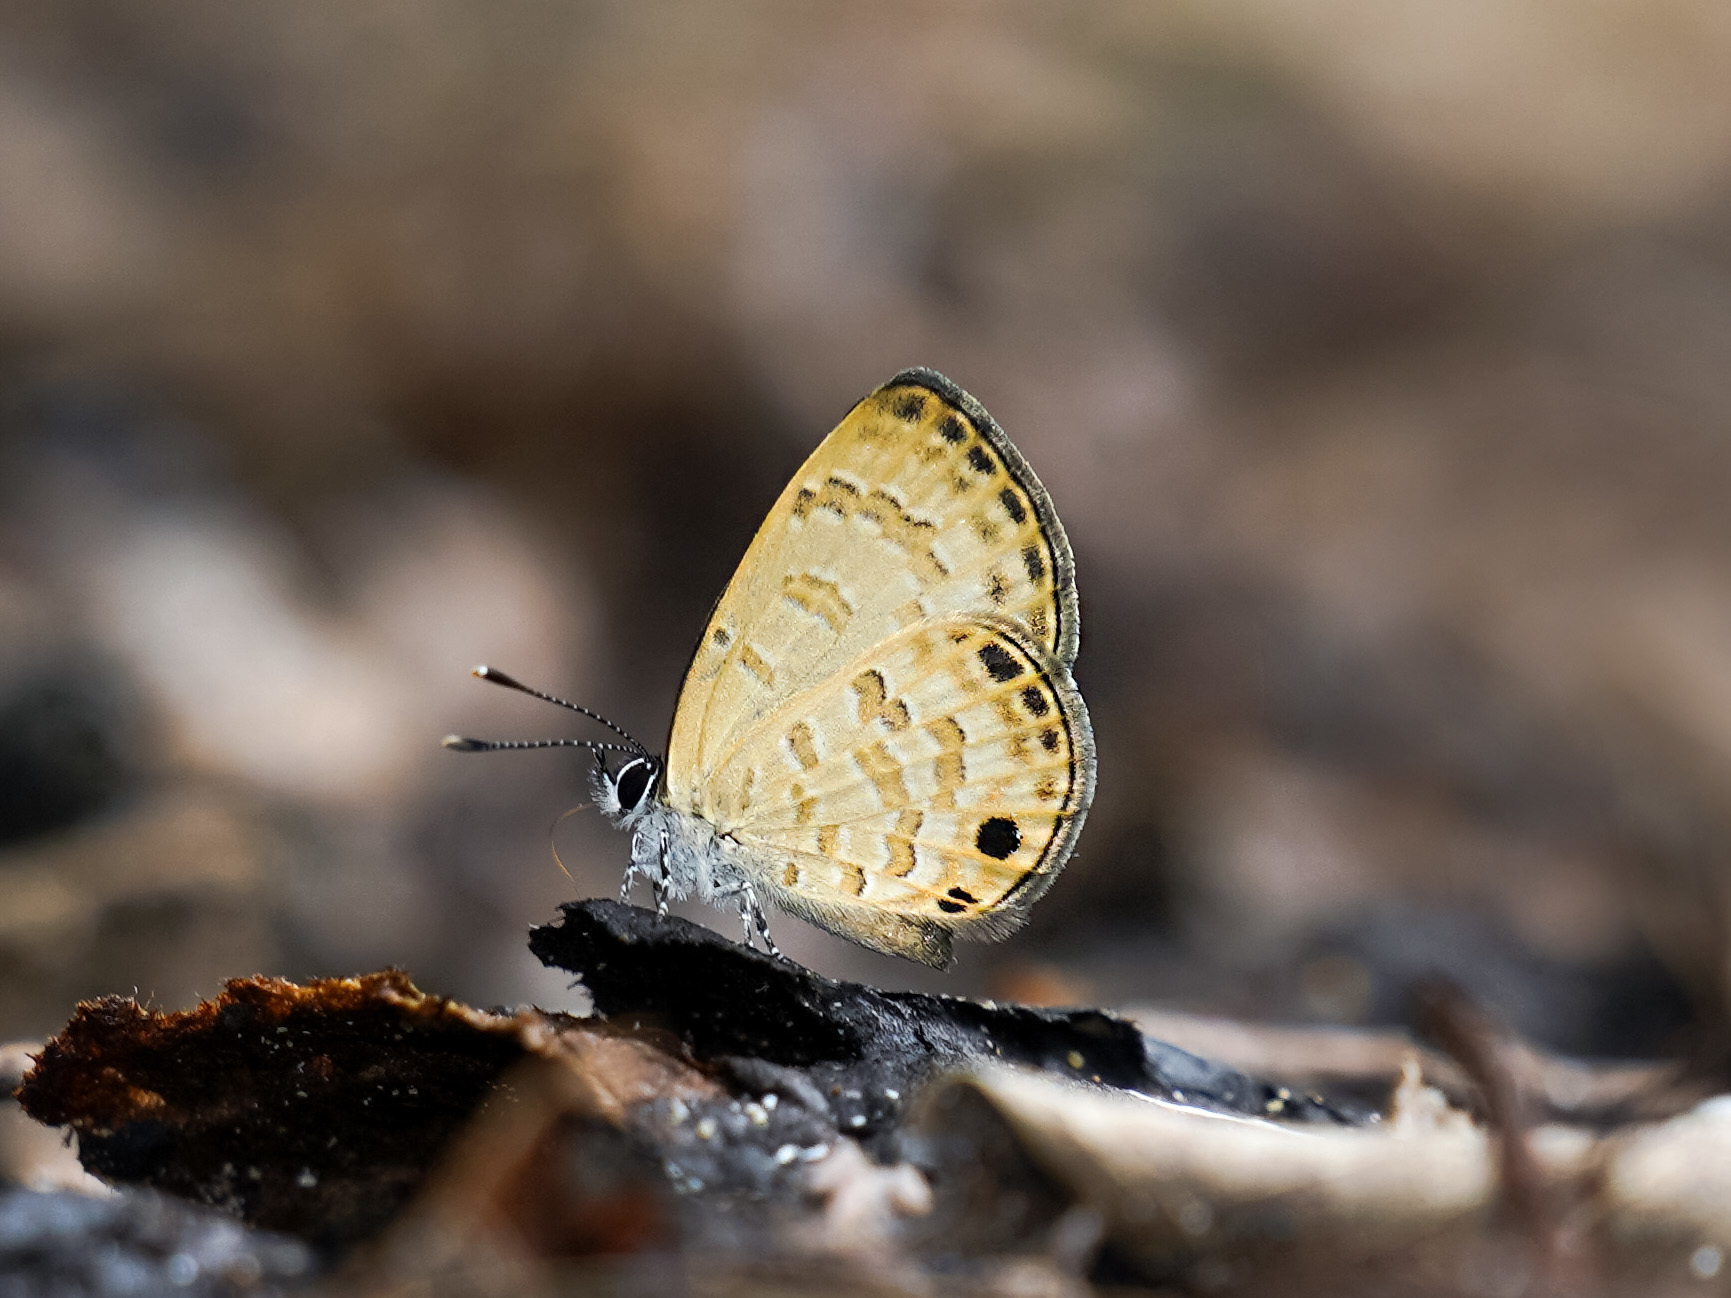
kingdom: Animalia
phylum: Arthropoda
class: Insecta
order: Lepidoptera
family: Lycaenidae
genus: Prosotas
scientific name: Prosotas lutea
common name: Brown lineblue
